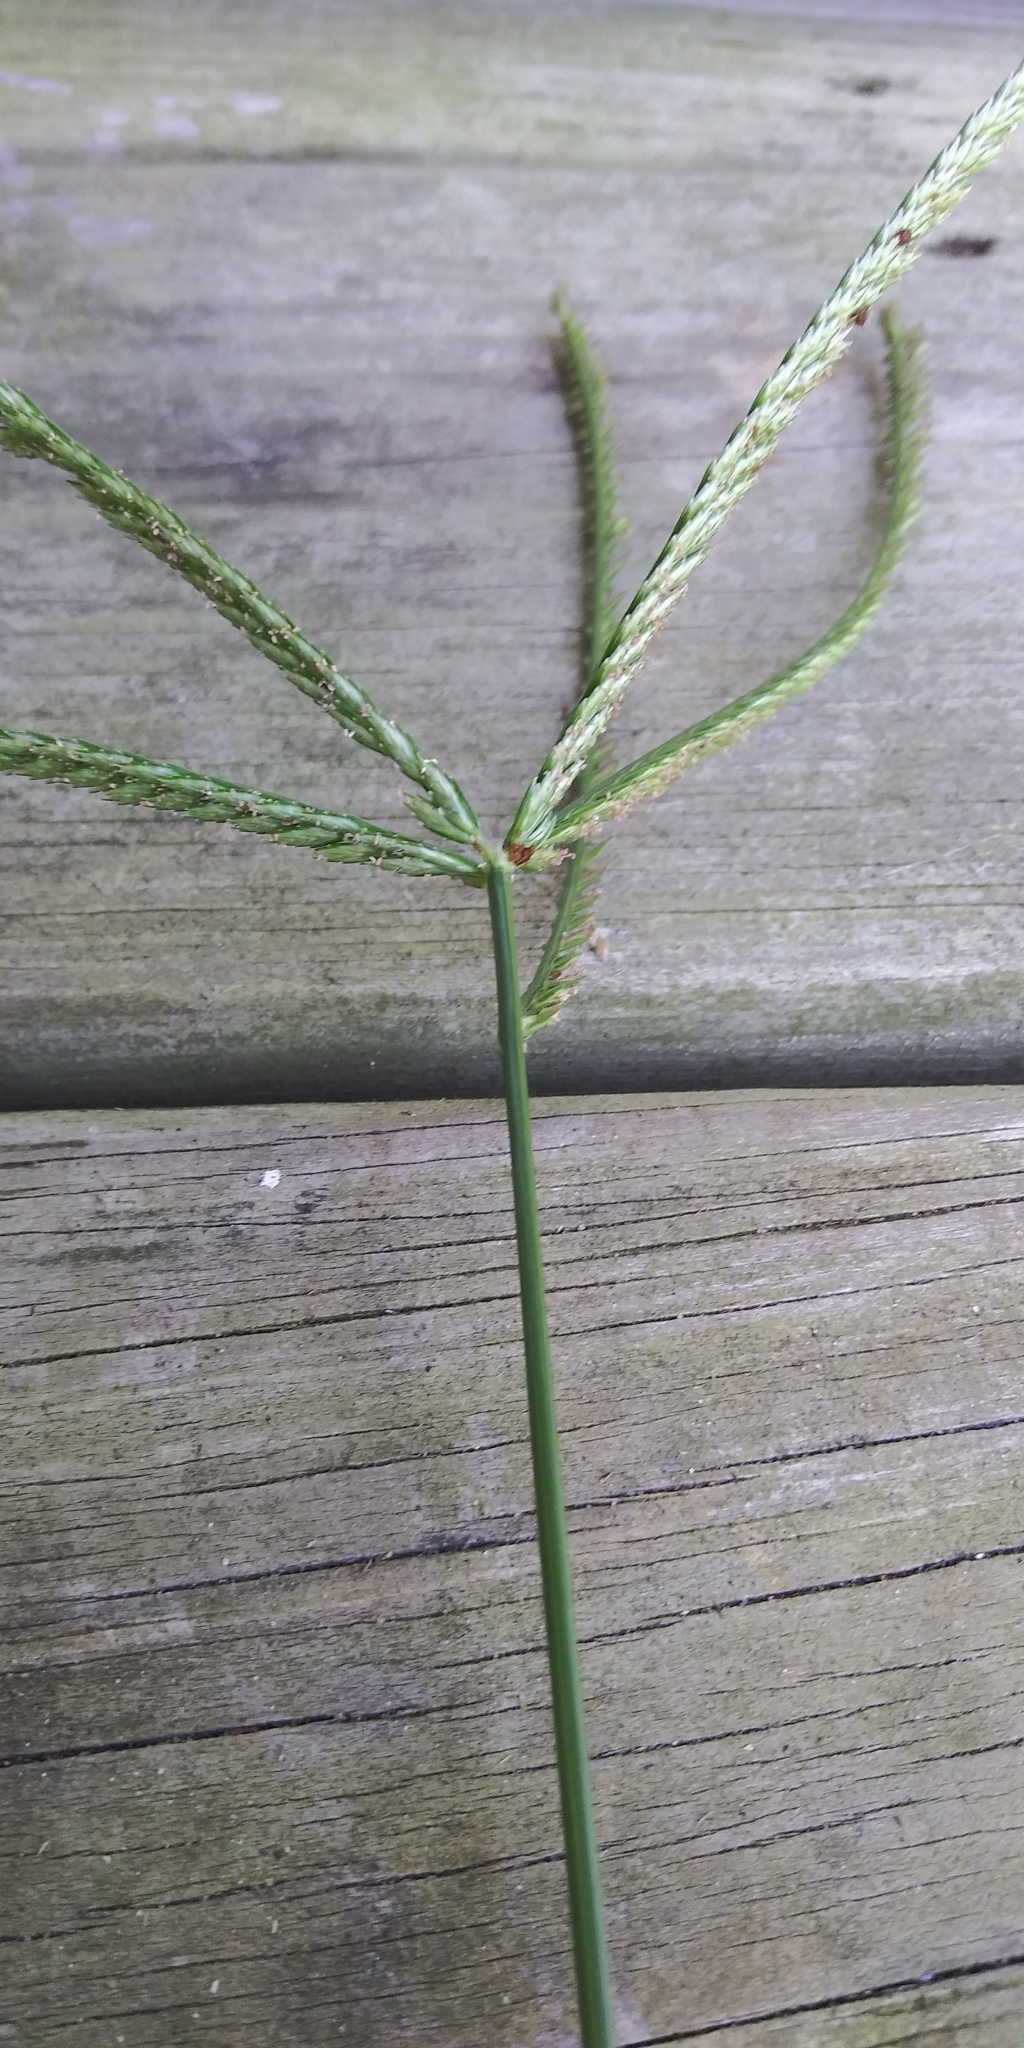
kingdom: Plantae
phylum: Tracheophyta
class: Liliopsida
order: Poales
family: Poaceae
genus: Eleusine
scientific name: Eleusine indica
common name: Yard-grass
